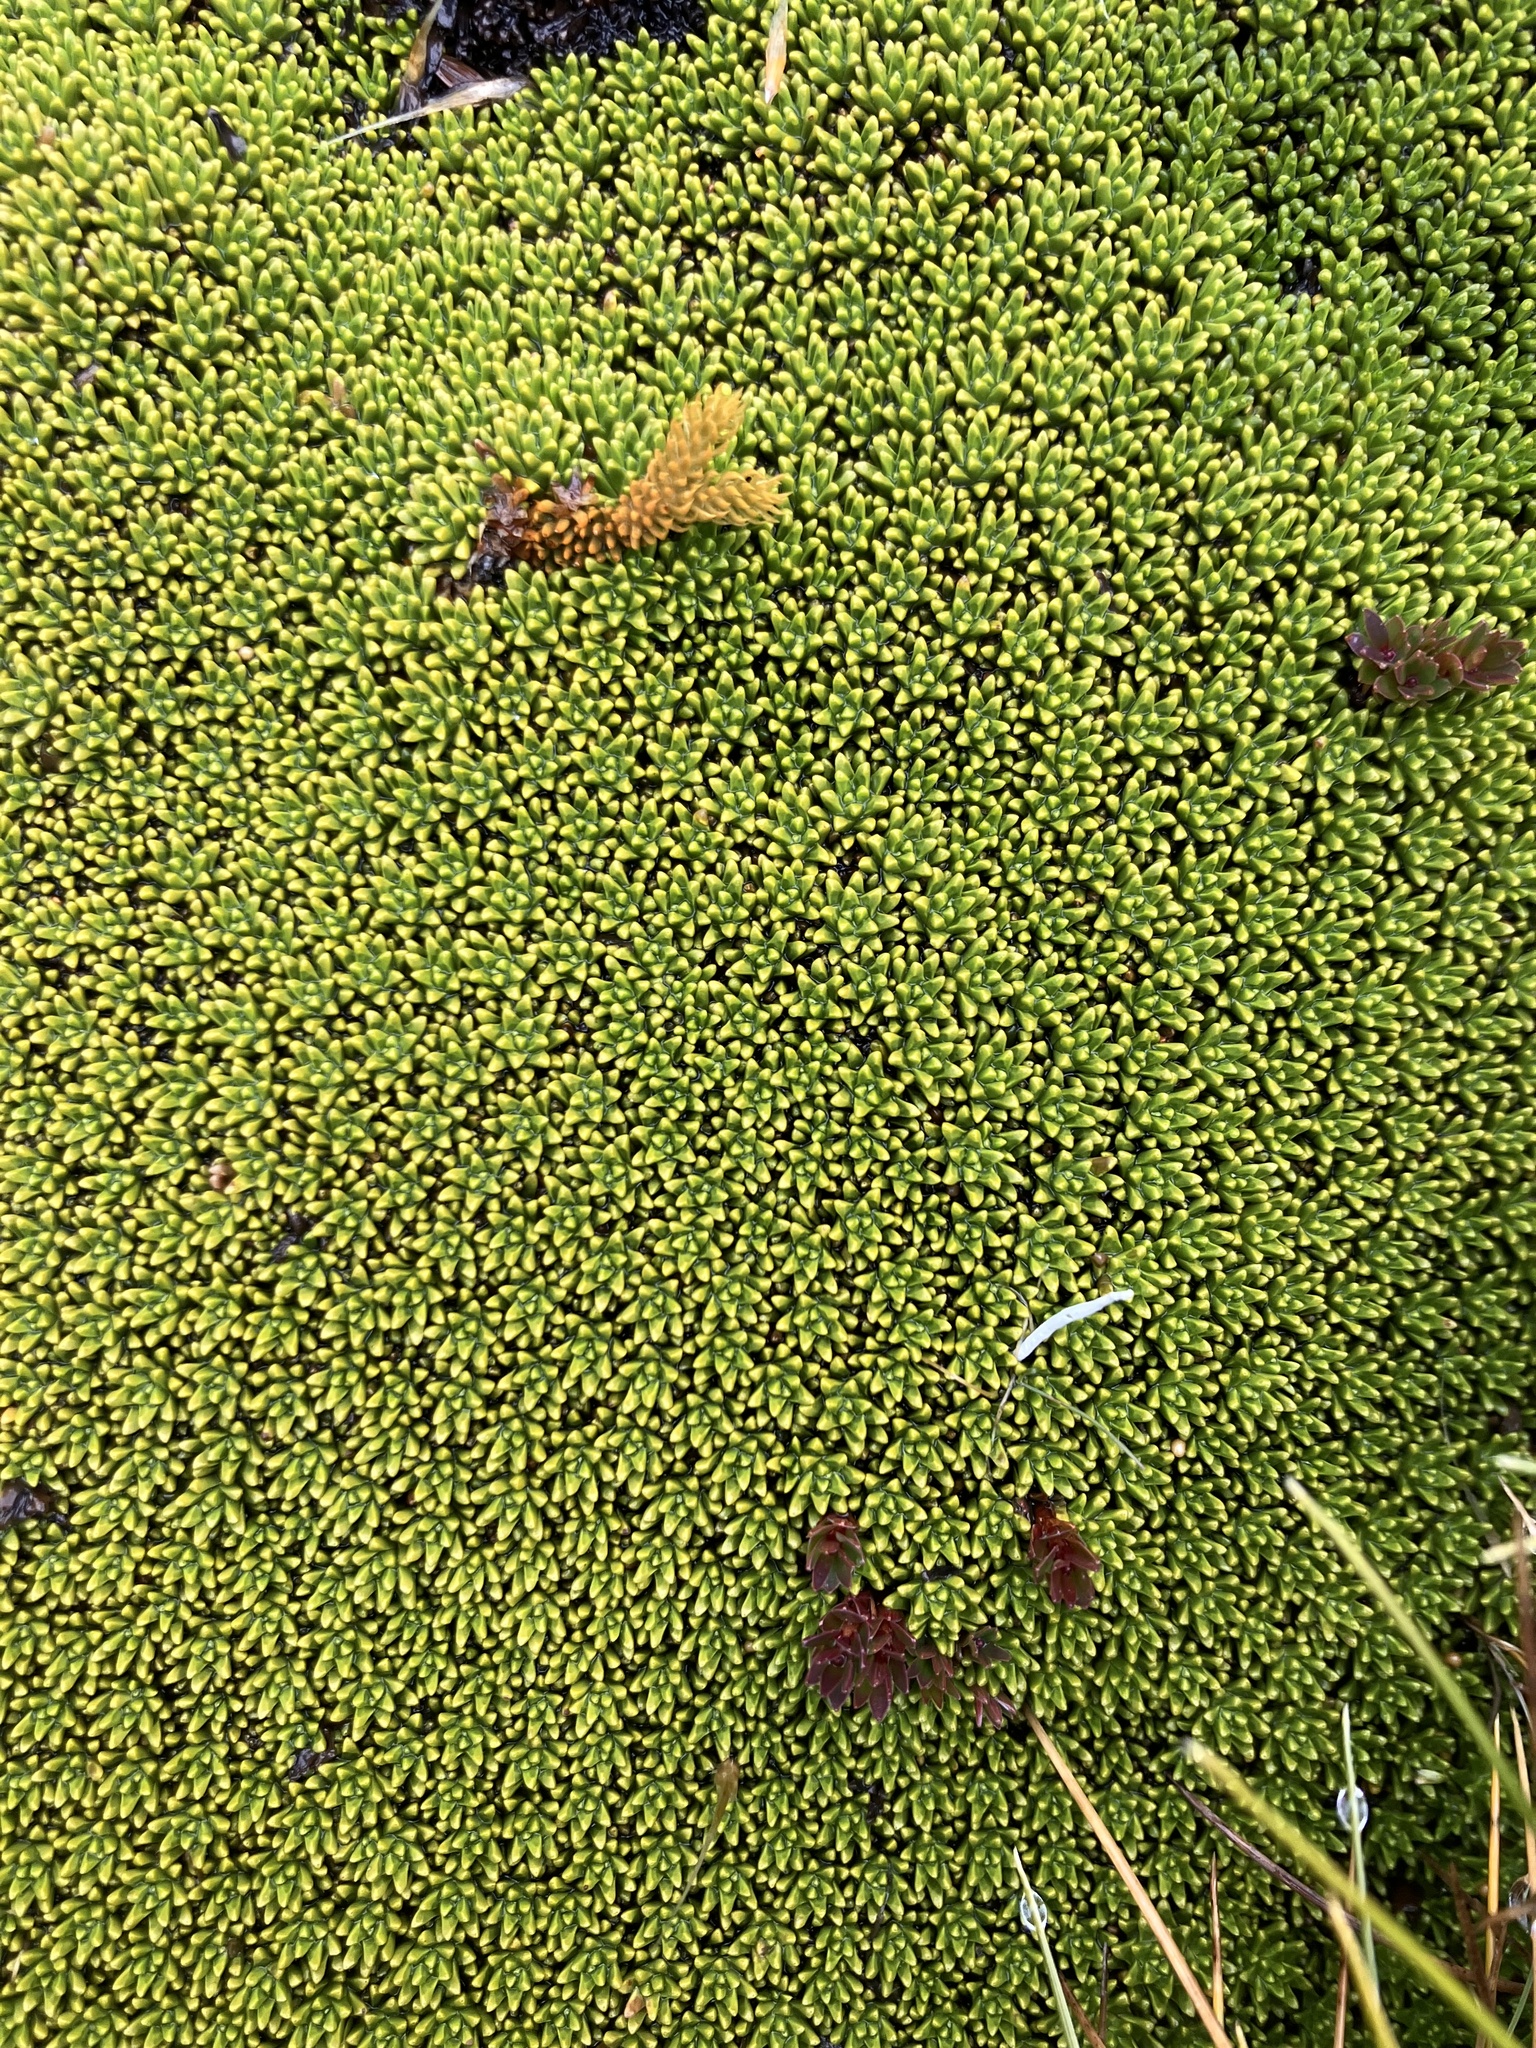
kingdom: Plantae
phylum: Tracheophyta
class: Magnoliopsida
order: Asterales
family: Stylidiaceae
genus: Phyllachne
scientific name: Phyllachne colensoi
